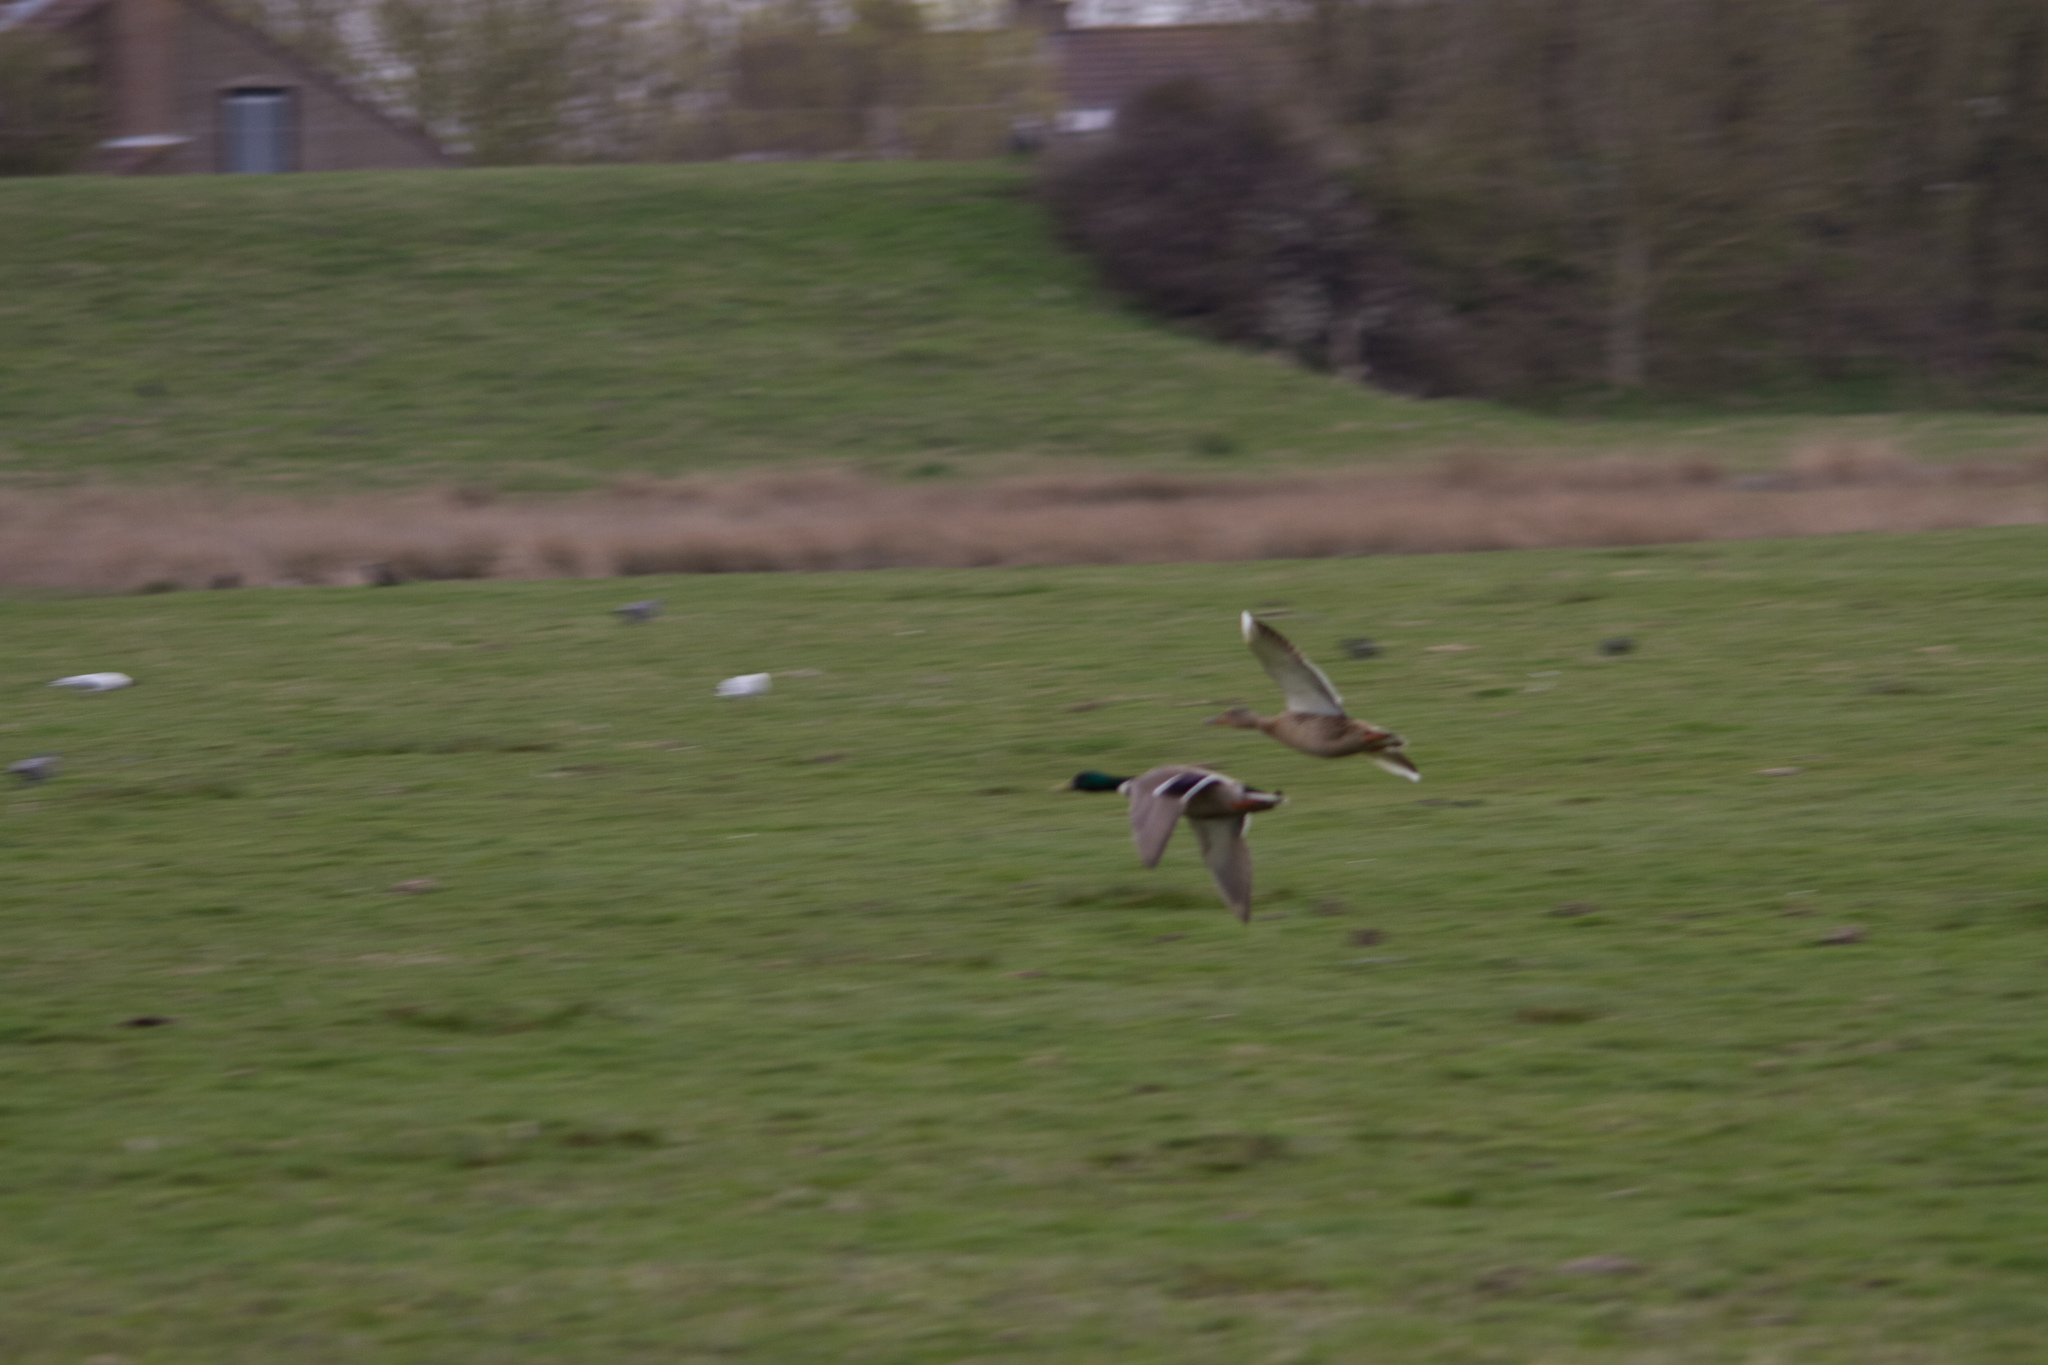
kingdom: Animalia
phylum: Chordata
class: Aves
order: Anseriformes
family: Anatidae
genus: Anas
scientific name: Anas platyrhynchos
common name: Mallard
